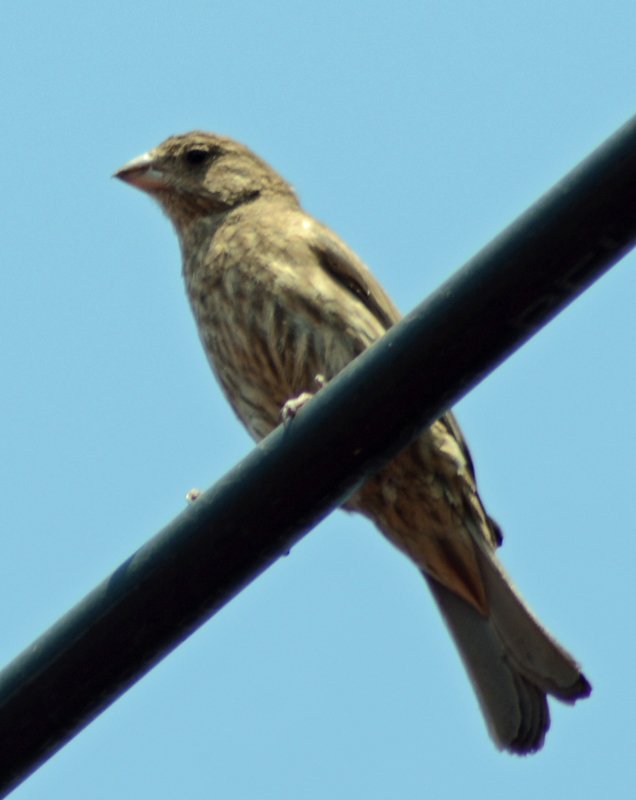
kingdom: Animalia
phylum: Chordata
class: Aves
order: Passeriformes
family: Fringillidae
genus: Haemorhous
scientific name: Haemorhous mexicanus
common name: House finch
